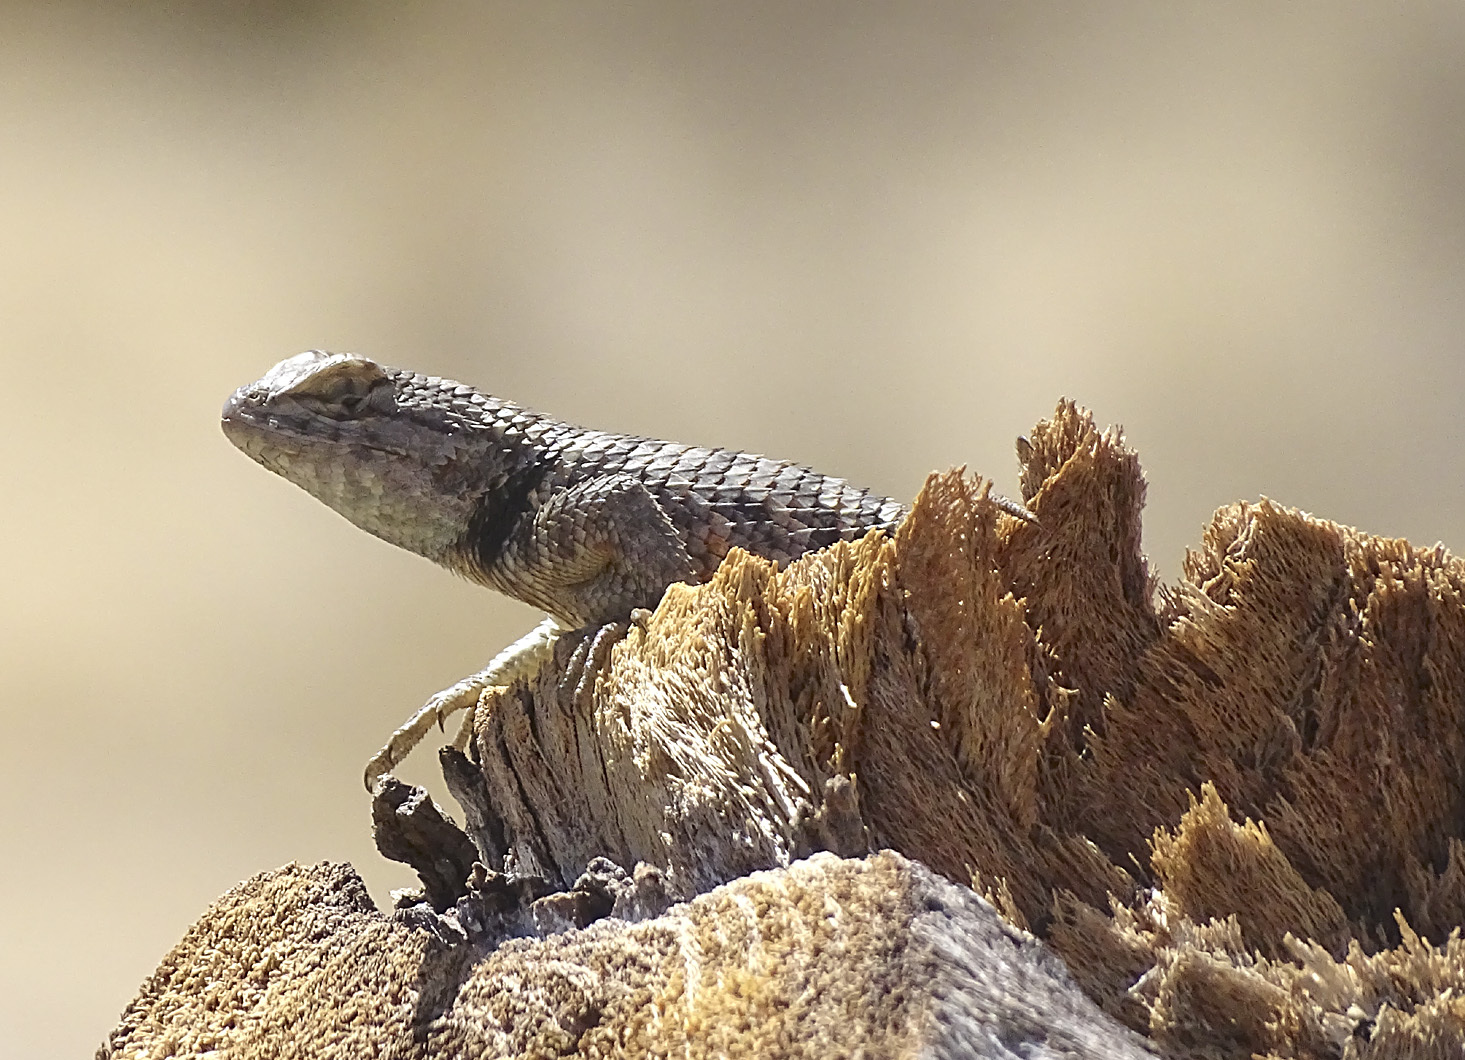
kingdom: Animalia
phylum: Chordata
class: Squamata
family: Phrynosomatidae
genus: Sceloporus
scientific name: Sceloporus uniformis
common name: Yellow-backed spiny lizard
